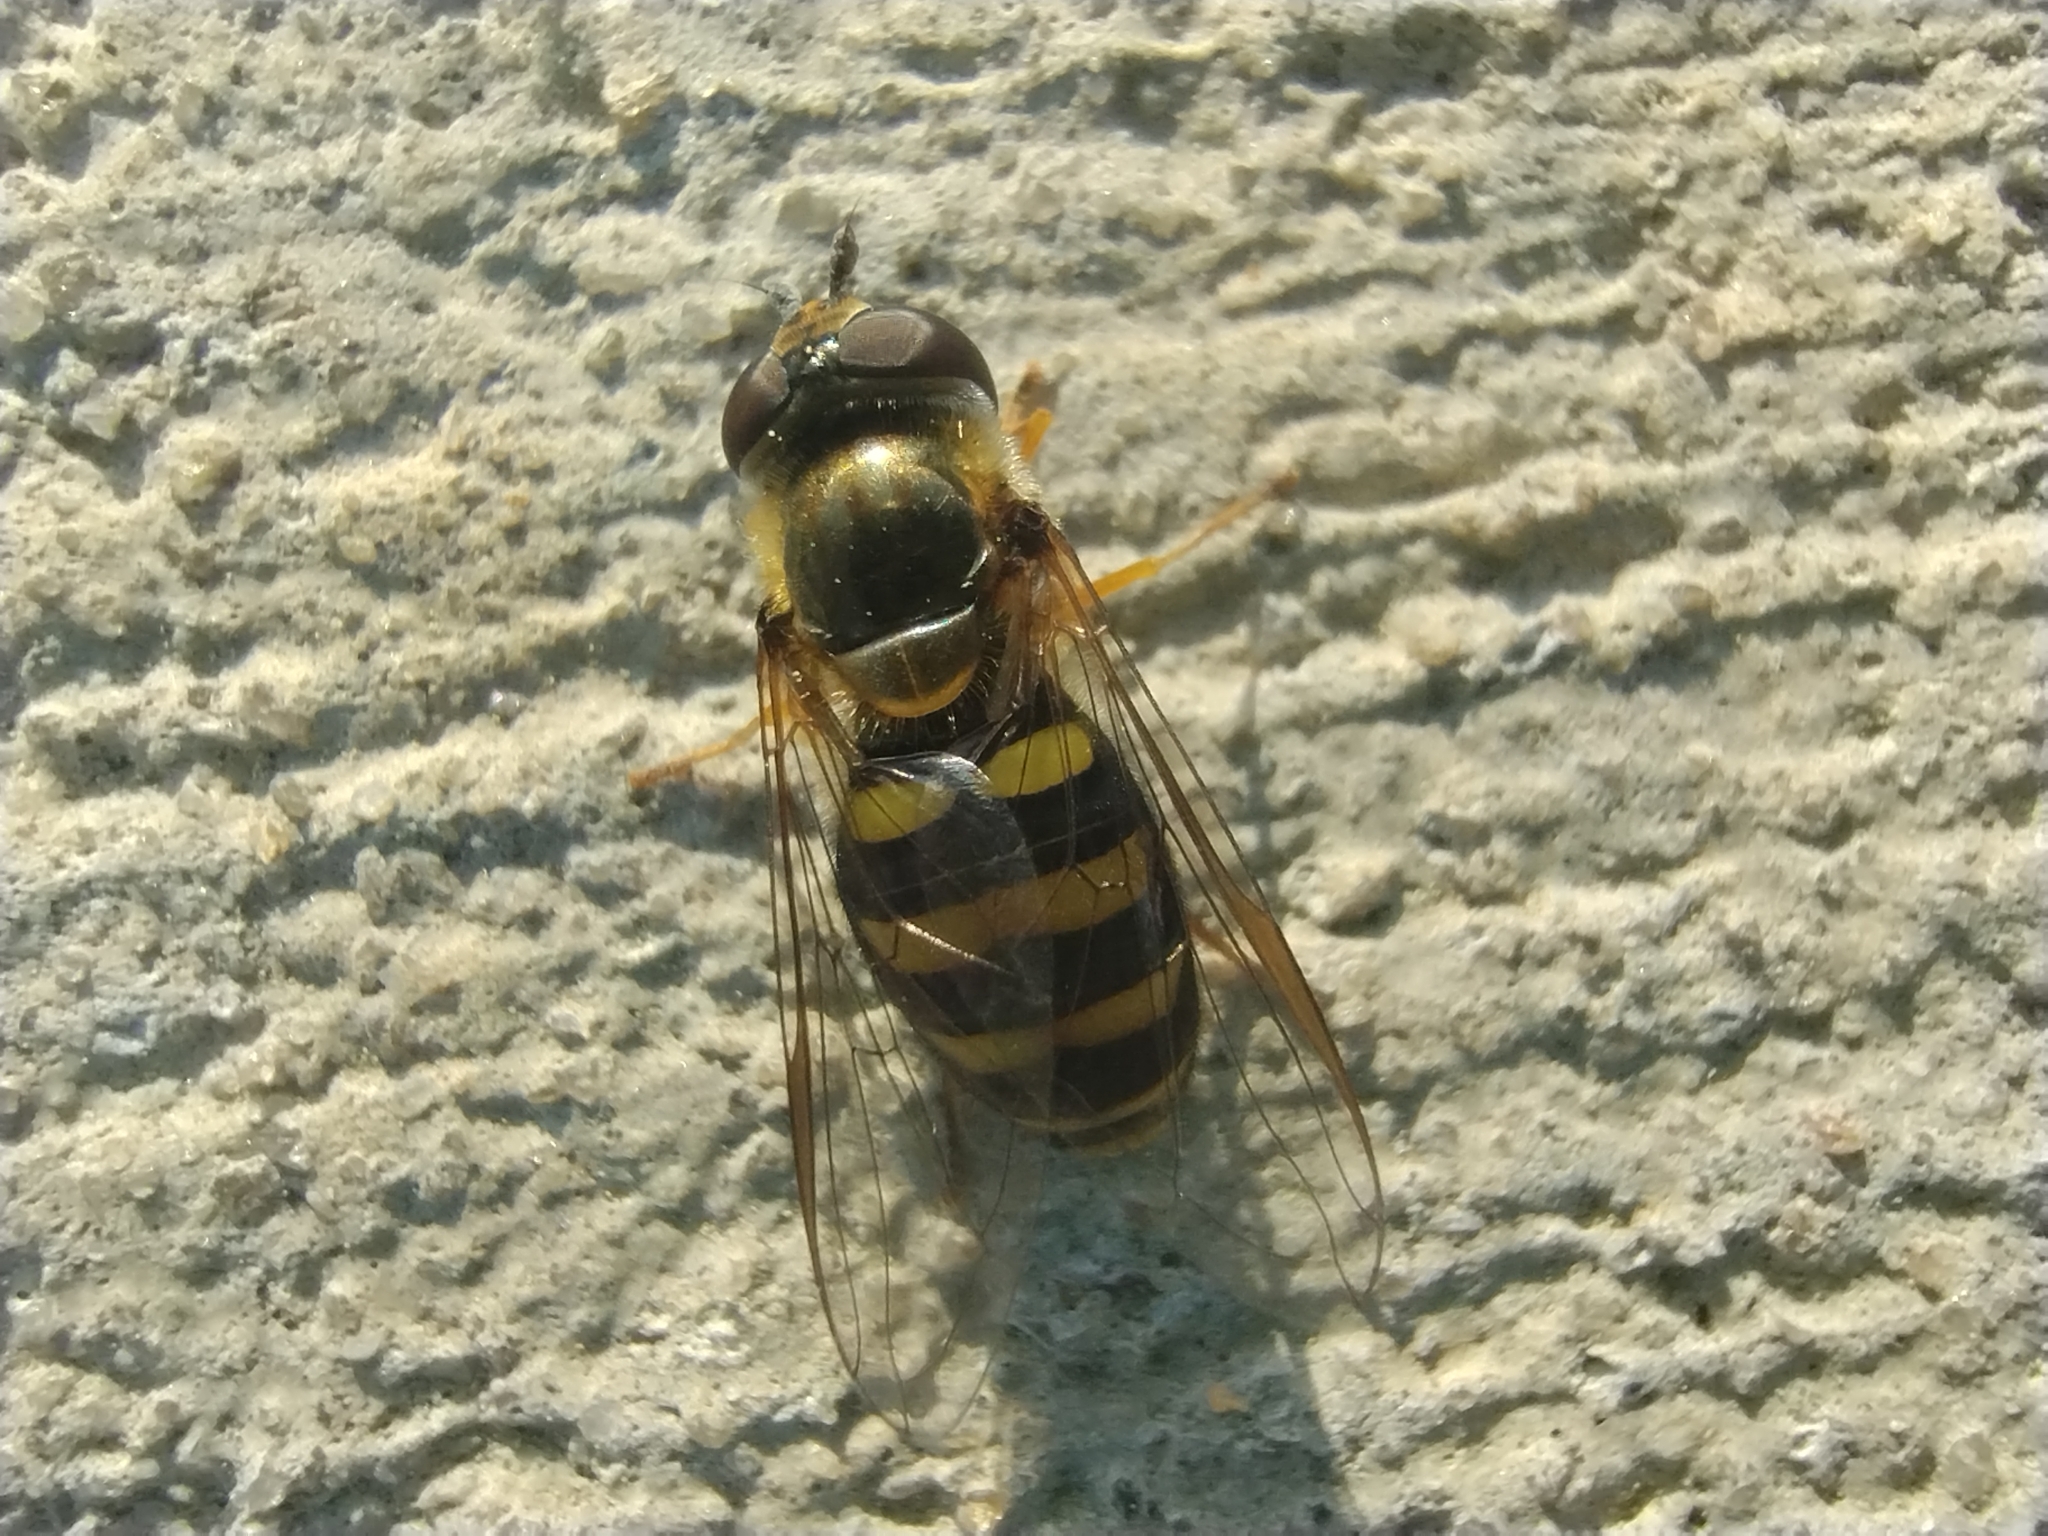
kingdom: Animalia
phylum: Arthropoda
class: Insecta
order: Diptera
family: Syrphidae
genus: Eupeodes
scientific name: Eupeodes
